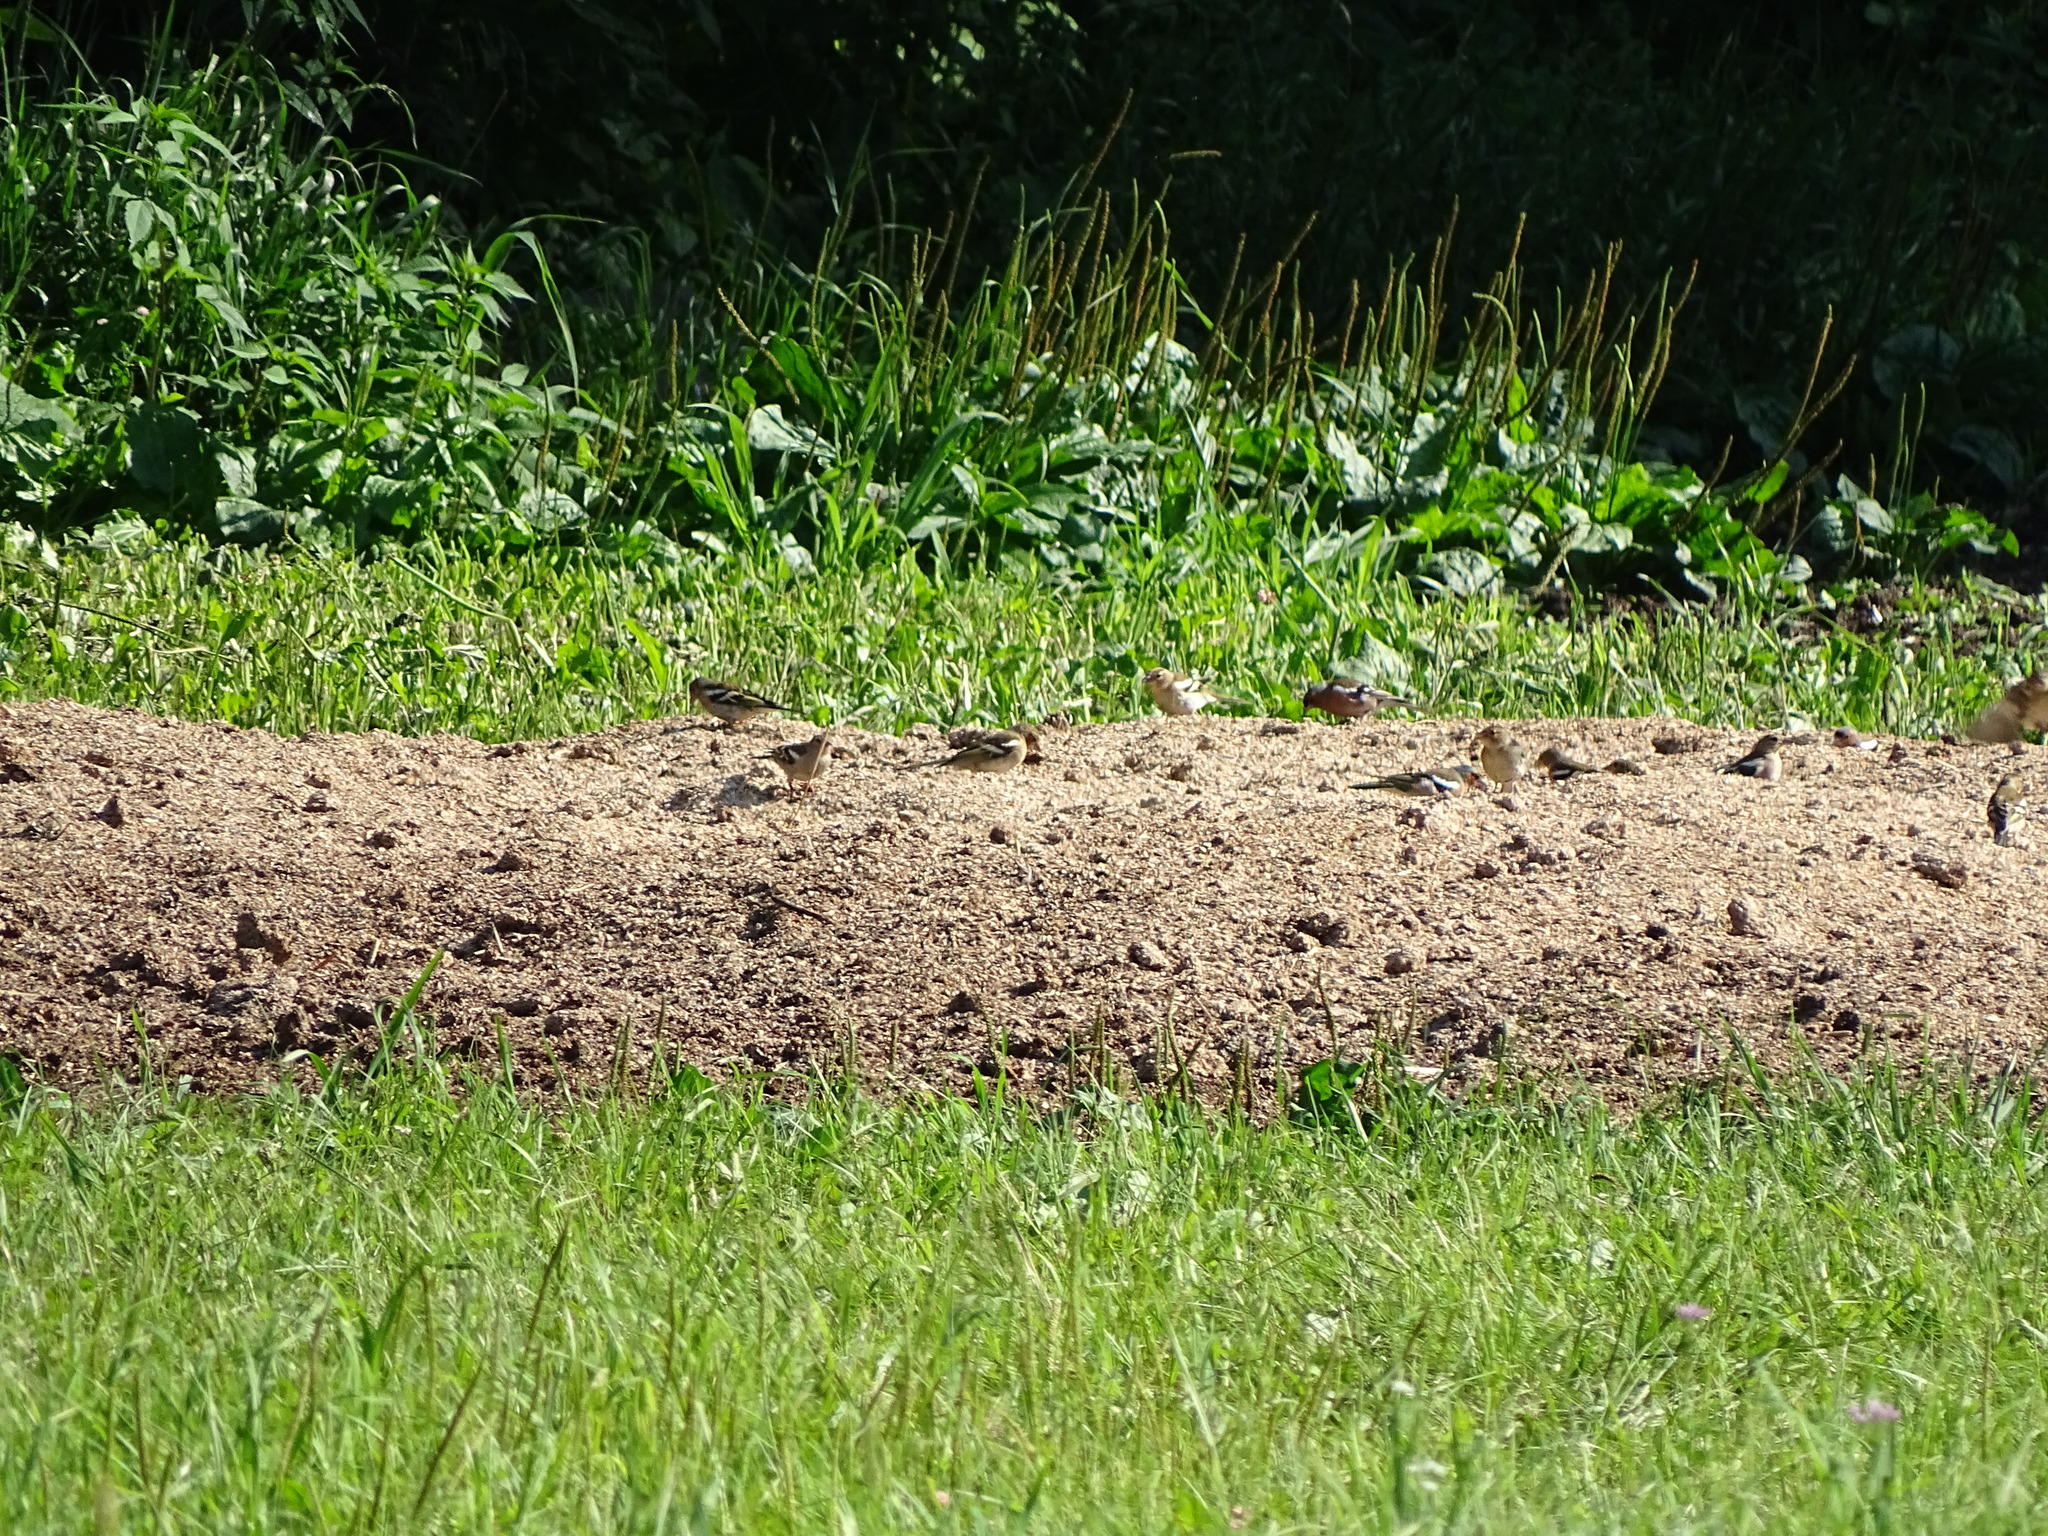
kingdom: Animalia
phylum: Chordata
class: Aves
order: Passeriformes
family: Fringillidae
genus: Fringilla
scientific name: Fringilla coelebs
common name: Common chaffinch
